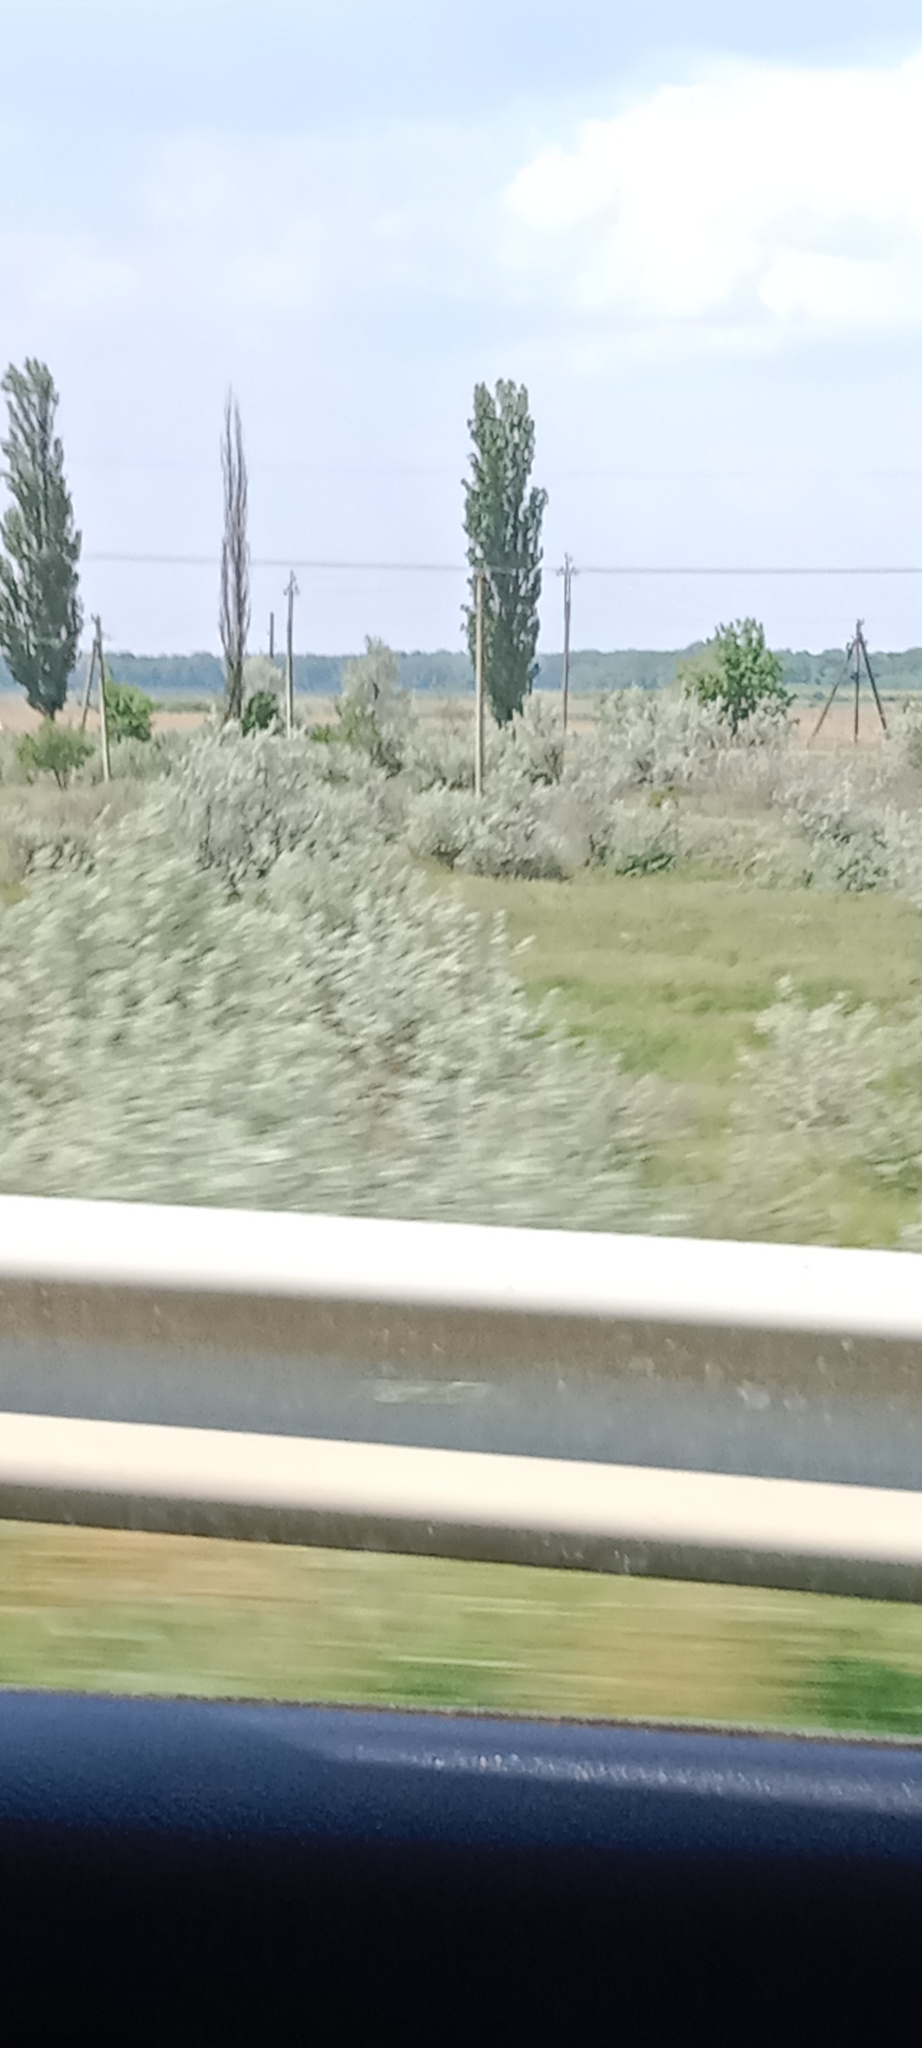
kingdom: Plantae
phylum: Tracheophyta
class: Magnoliopsida
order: Rosales
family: Elaeagnaceae
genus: Elaeagnus
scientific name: Elaeagnus angustifolia
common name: Russian olive
